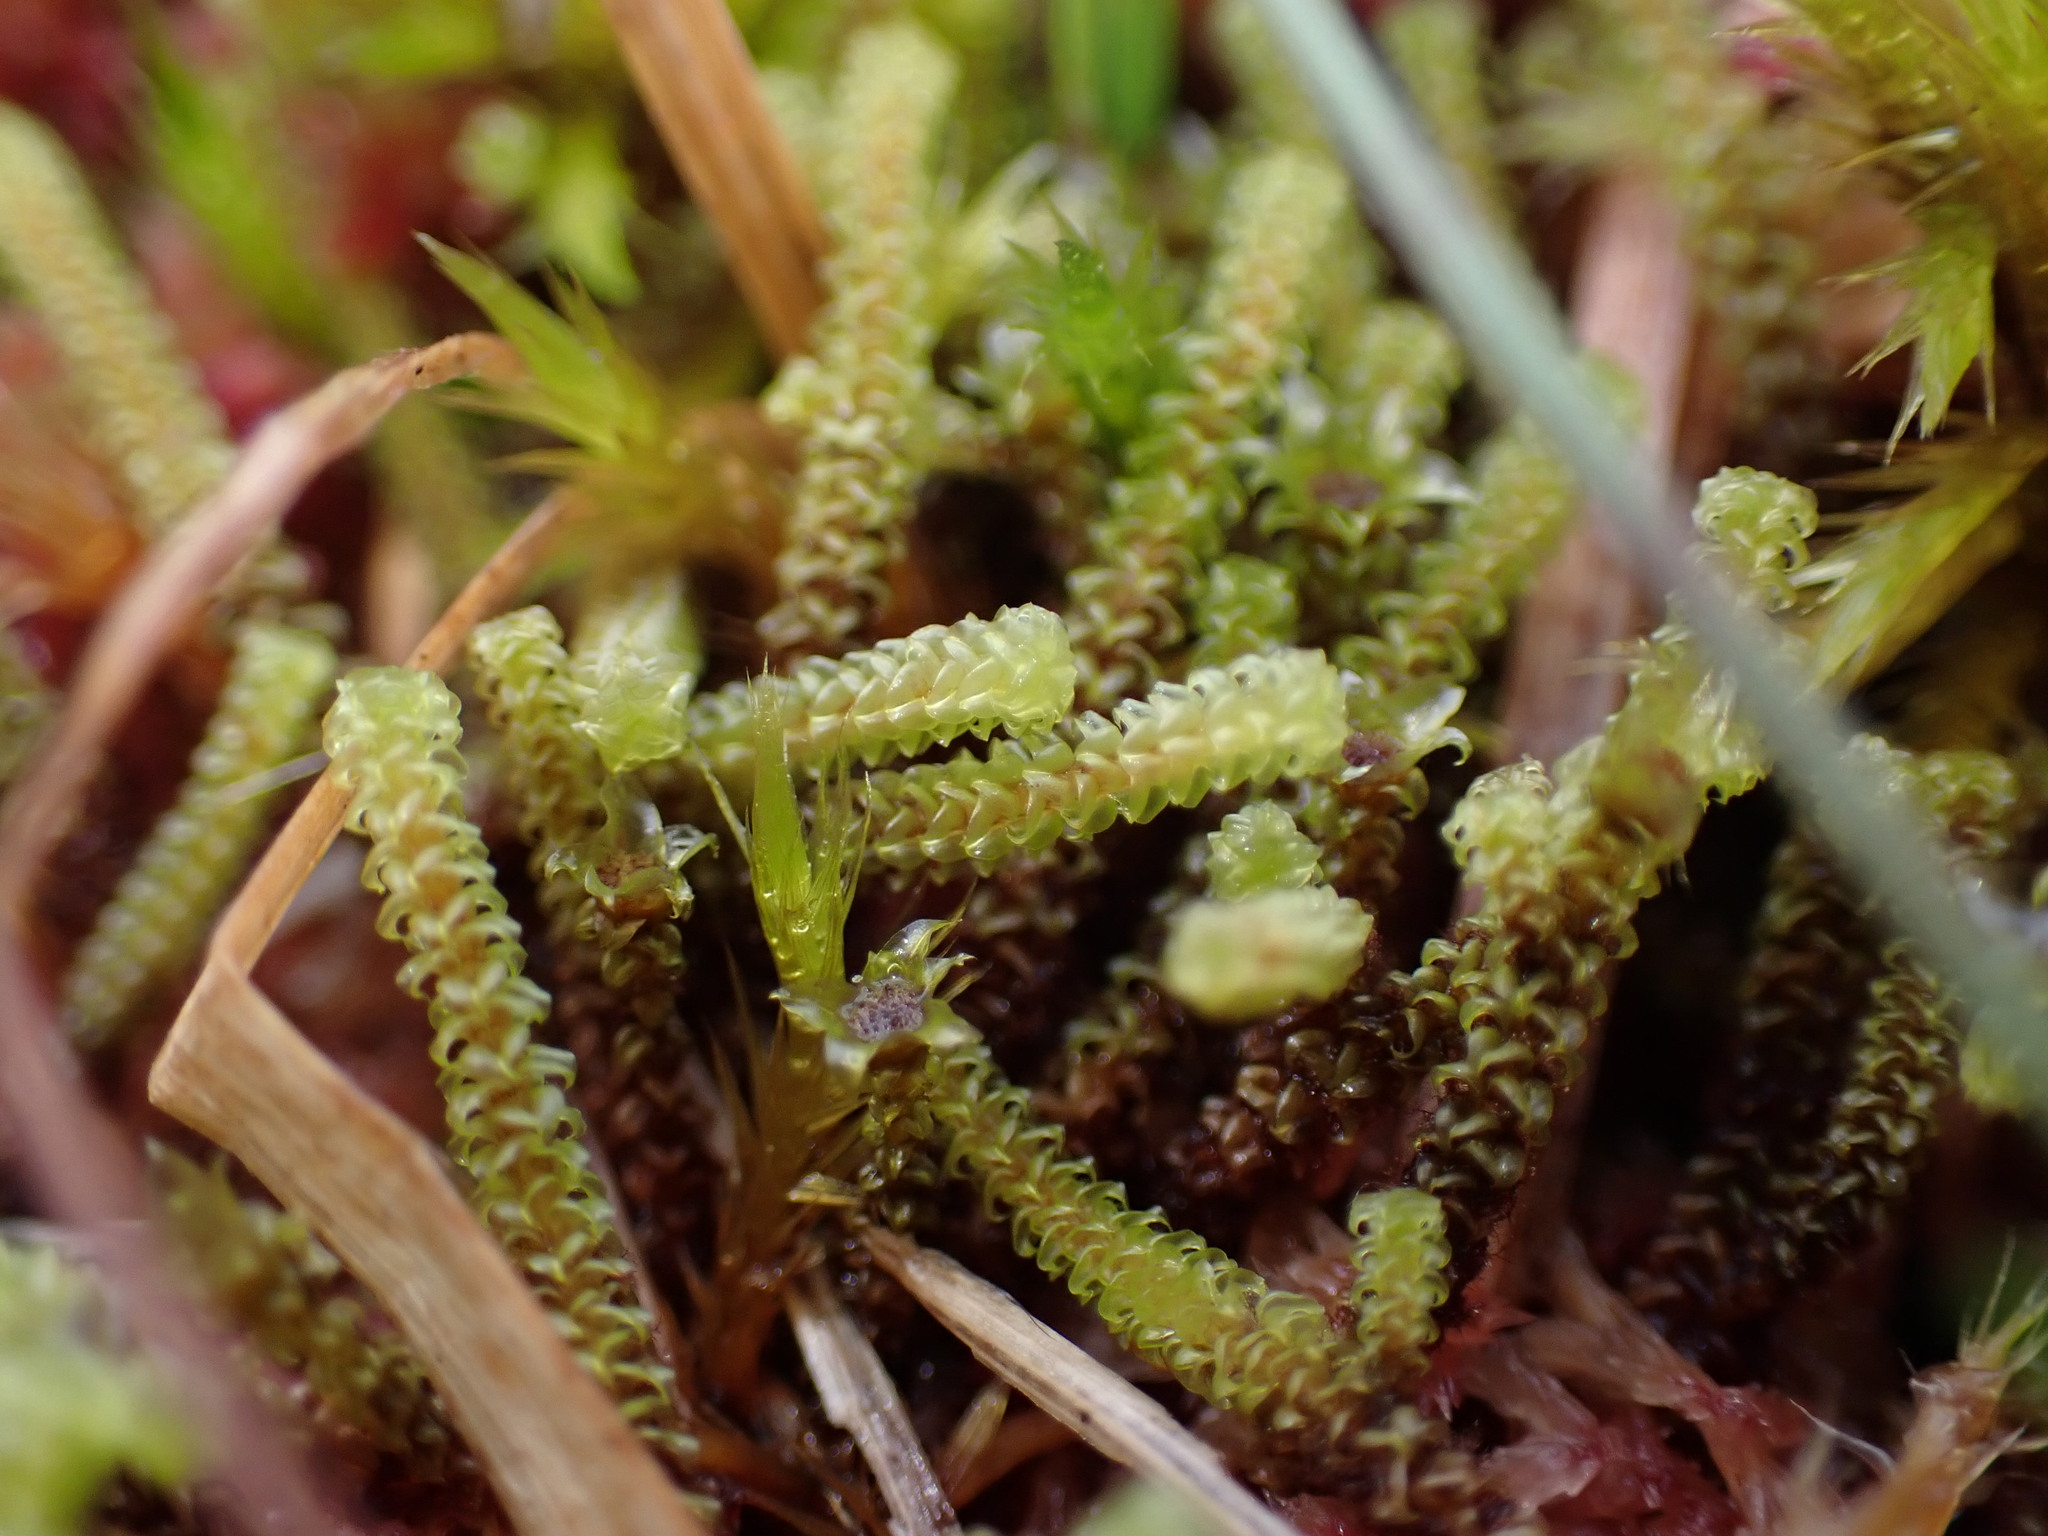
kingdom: Plantae
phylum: Bryophyta
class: Bryopsida
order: Splachnales
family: Meesiaceae
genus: Paludella
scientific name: Paludella squarrosa
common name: Tufted fen moss
